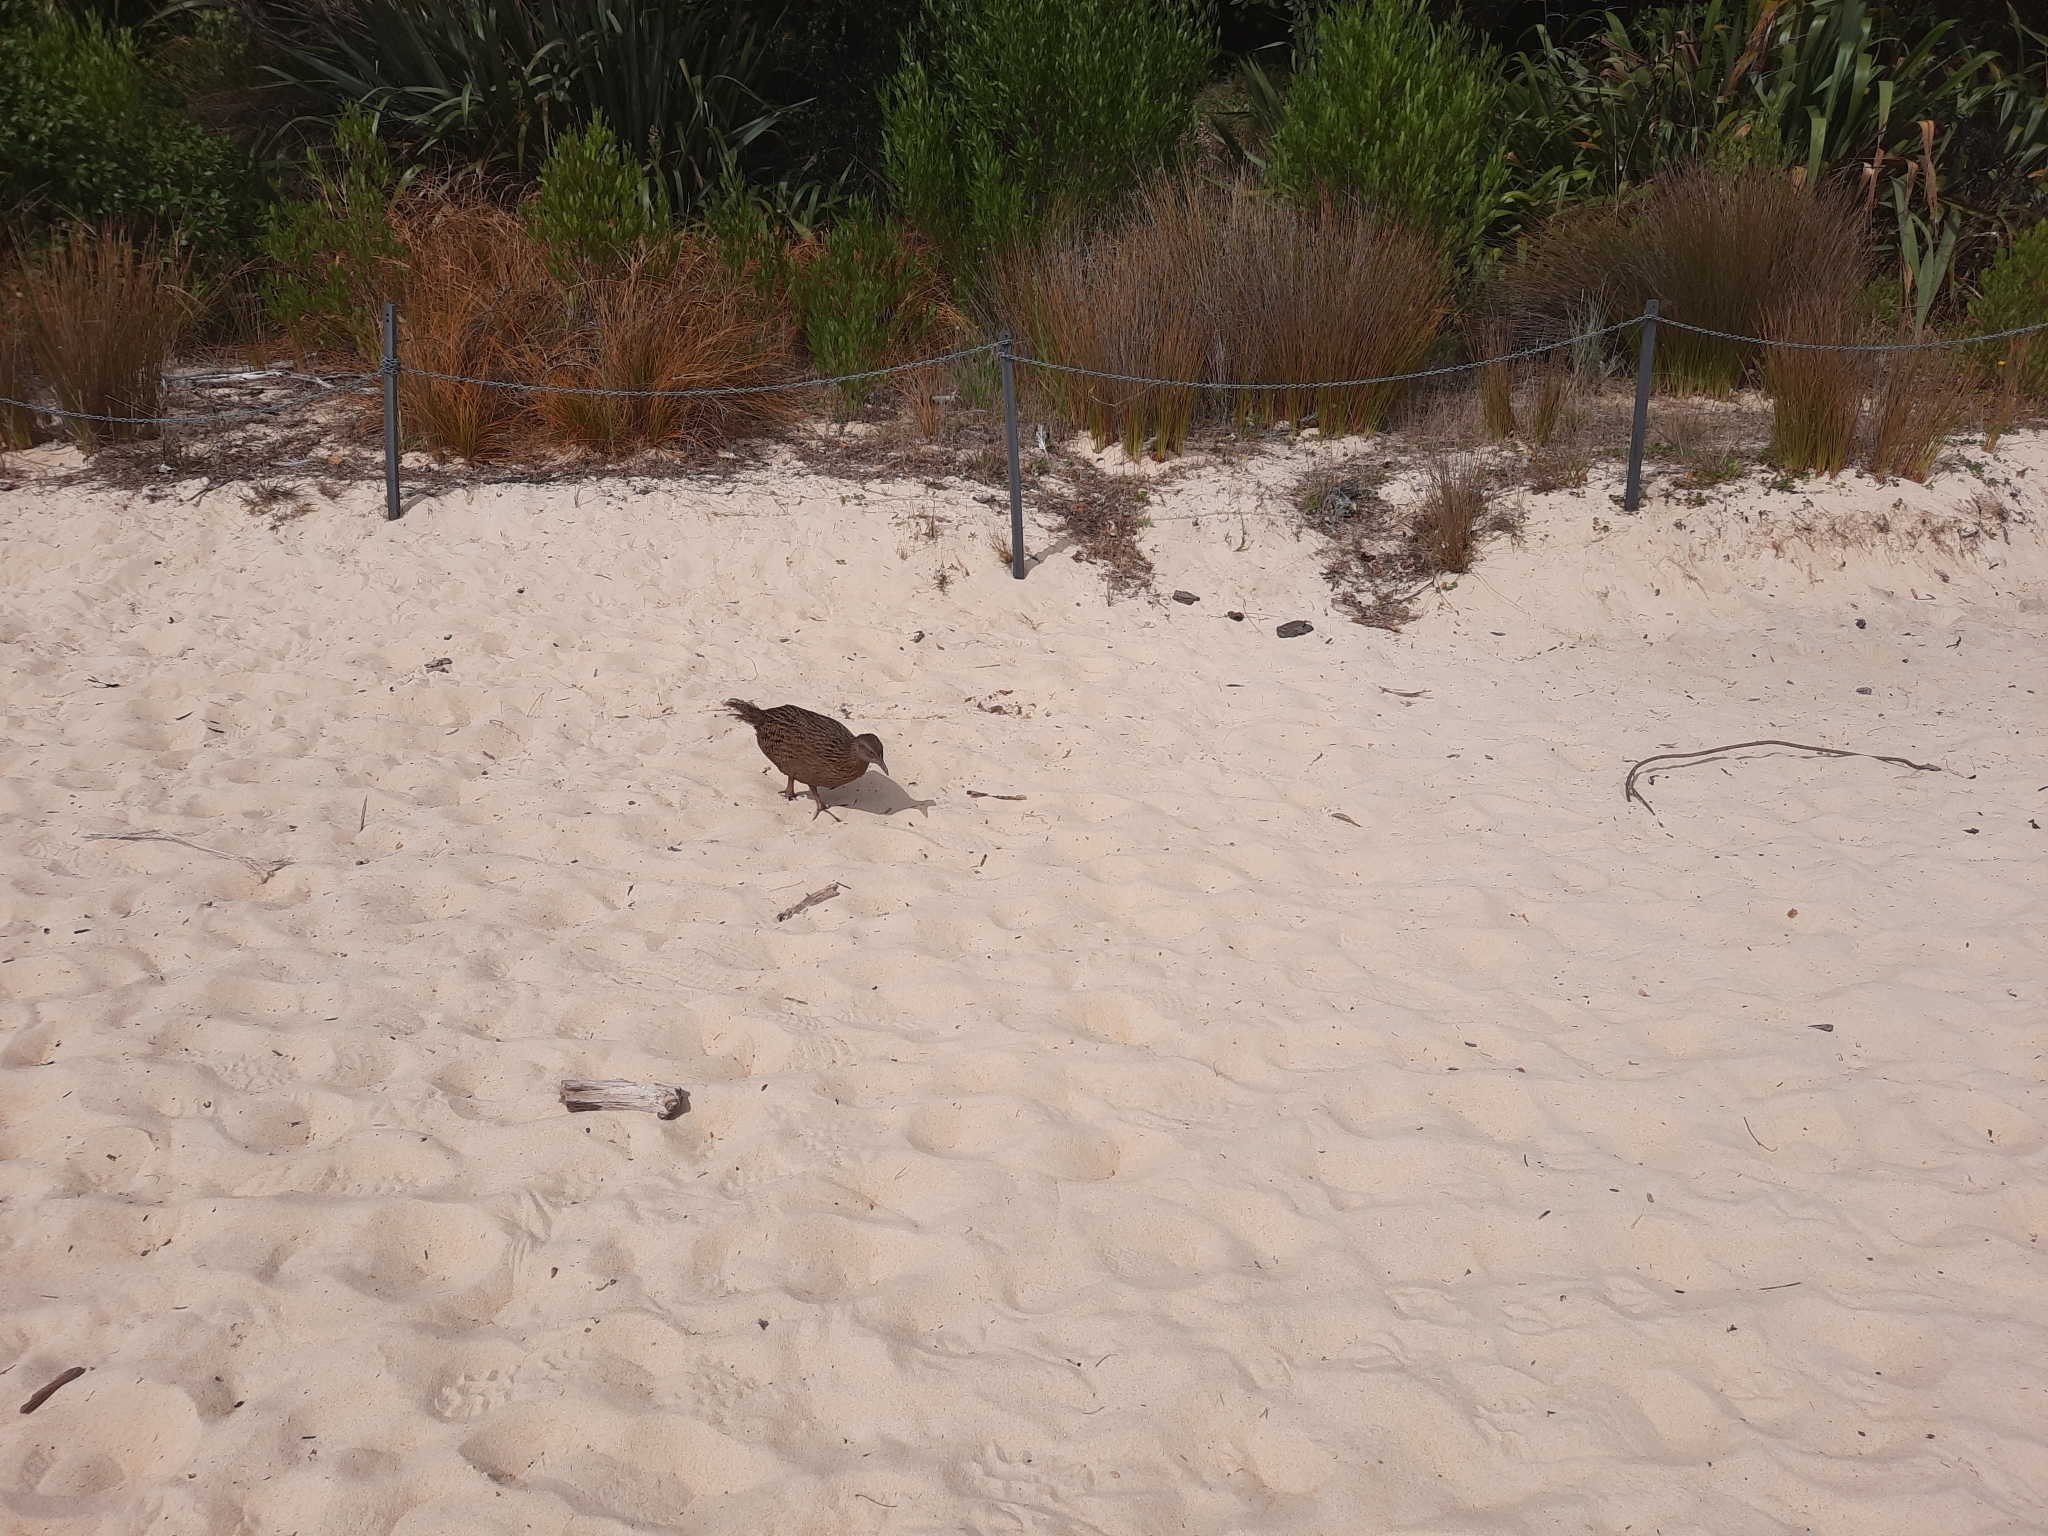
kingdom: Animalia
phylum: Chordata
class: Aves
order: Gruiformes
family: Rallidae
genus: Gallirallus
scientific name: Gallirallus australis
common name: Weka
